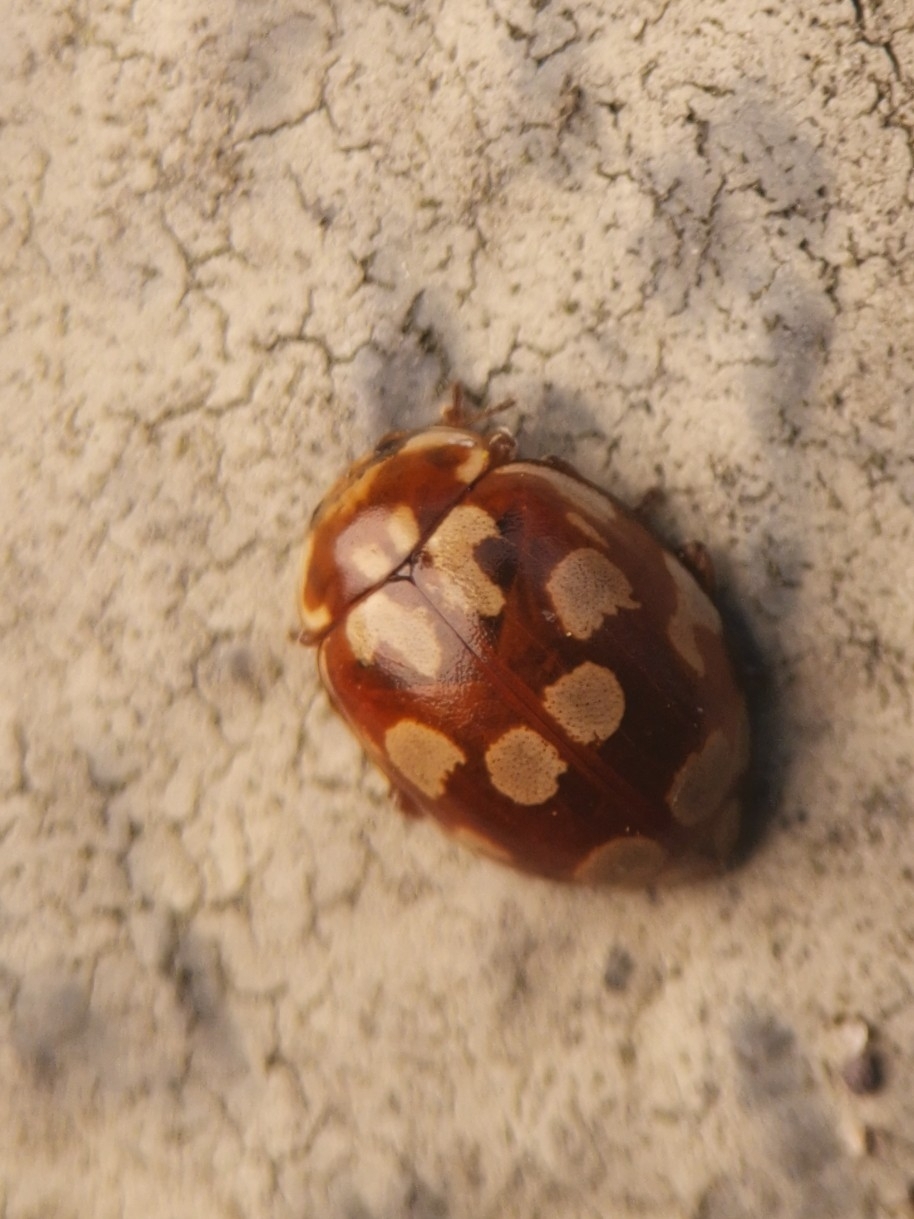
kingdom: Animalia
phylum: Arthropoda
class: Insecta
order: Coleoptera
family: Coccinellidae
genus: Myrrha
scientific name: Myrrha octodecimguttata
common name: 18-spot ladybird
